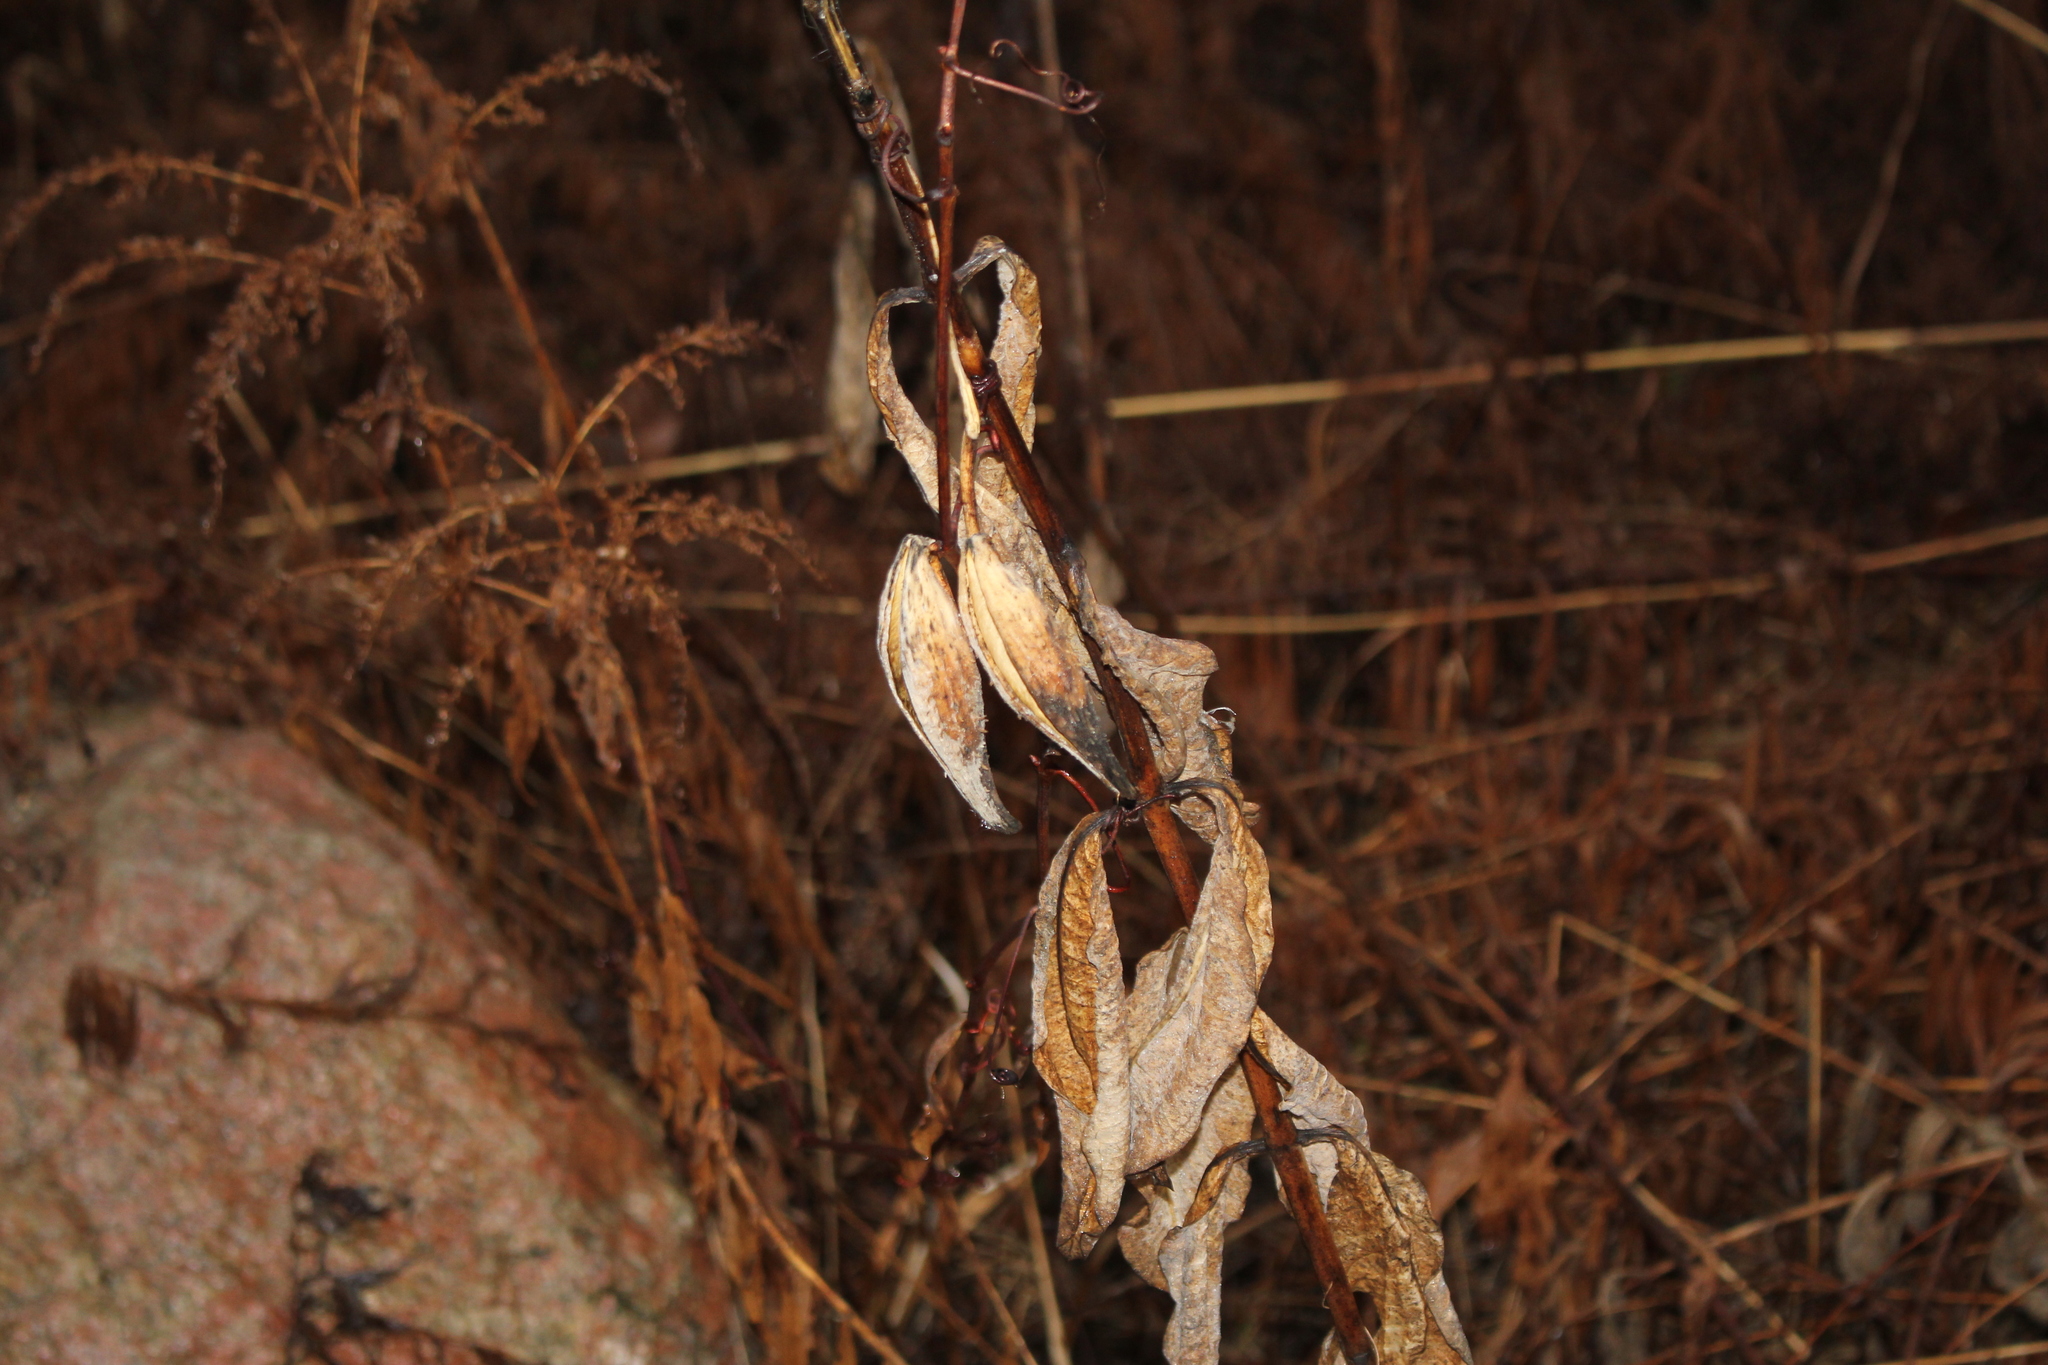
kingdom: Plantae
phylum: Tracheophyta
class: Magnoliopsida
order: Gentianales
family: Apocynaceae
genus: Asclepias
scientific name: Asclepias syriaca
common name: Common milkweed
